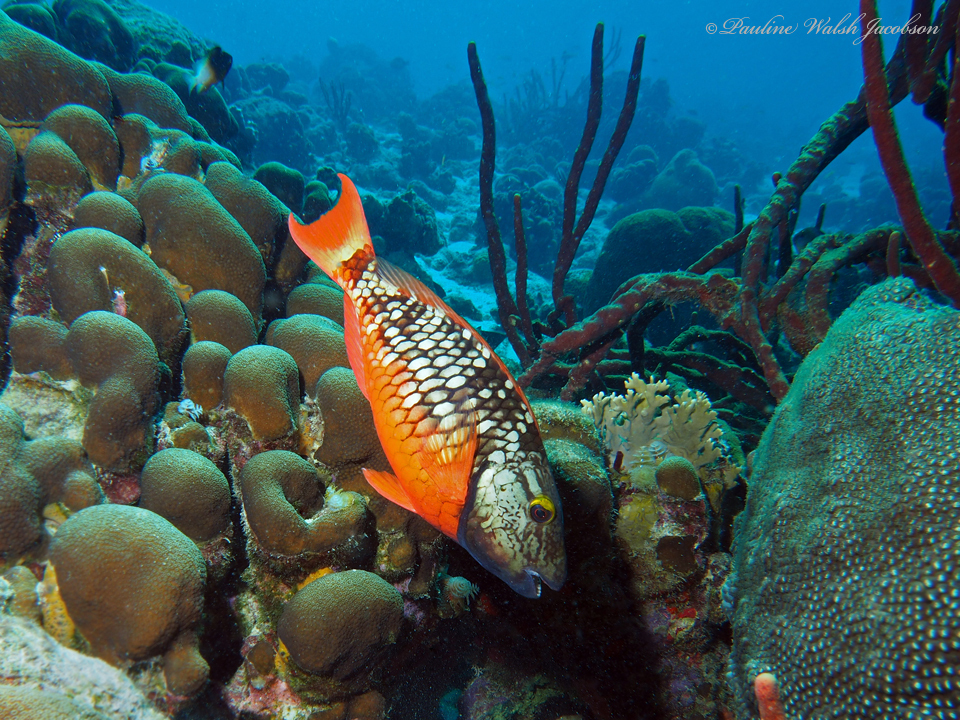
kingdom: Animalia
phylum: Chordata
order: Perciformes
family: Scaridae
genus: Sparisoma
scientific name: Sparisoma viride
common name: Stoplight parrotfish
